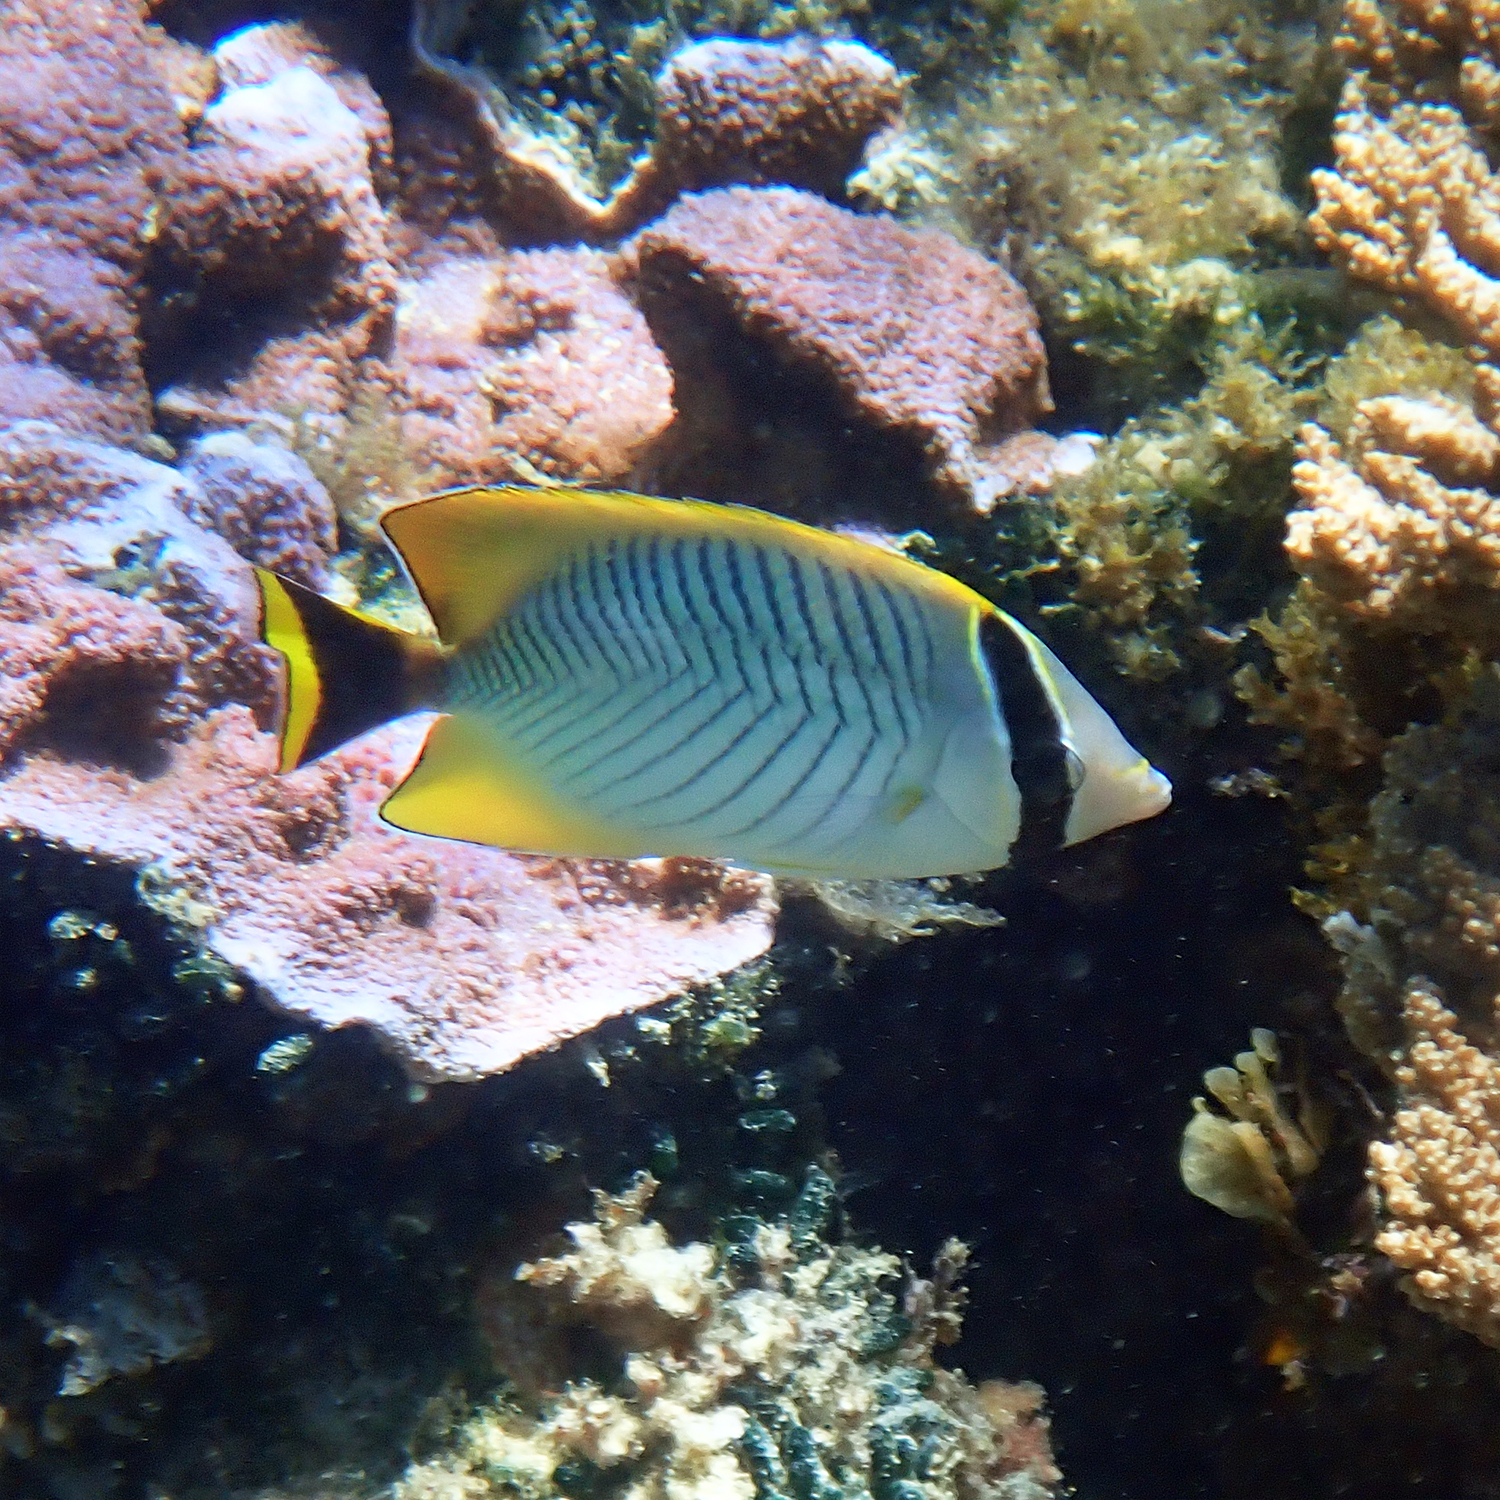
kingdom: Animalia
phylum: Chordata
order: Perciformes
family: Chaetodontidae
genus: Chaetodon
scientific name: Chaetodon trifascialis
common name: Chevroned butterflyfish
